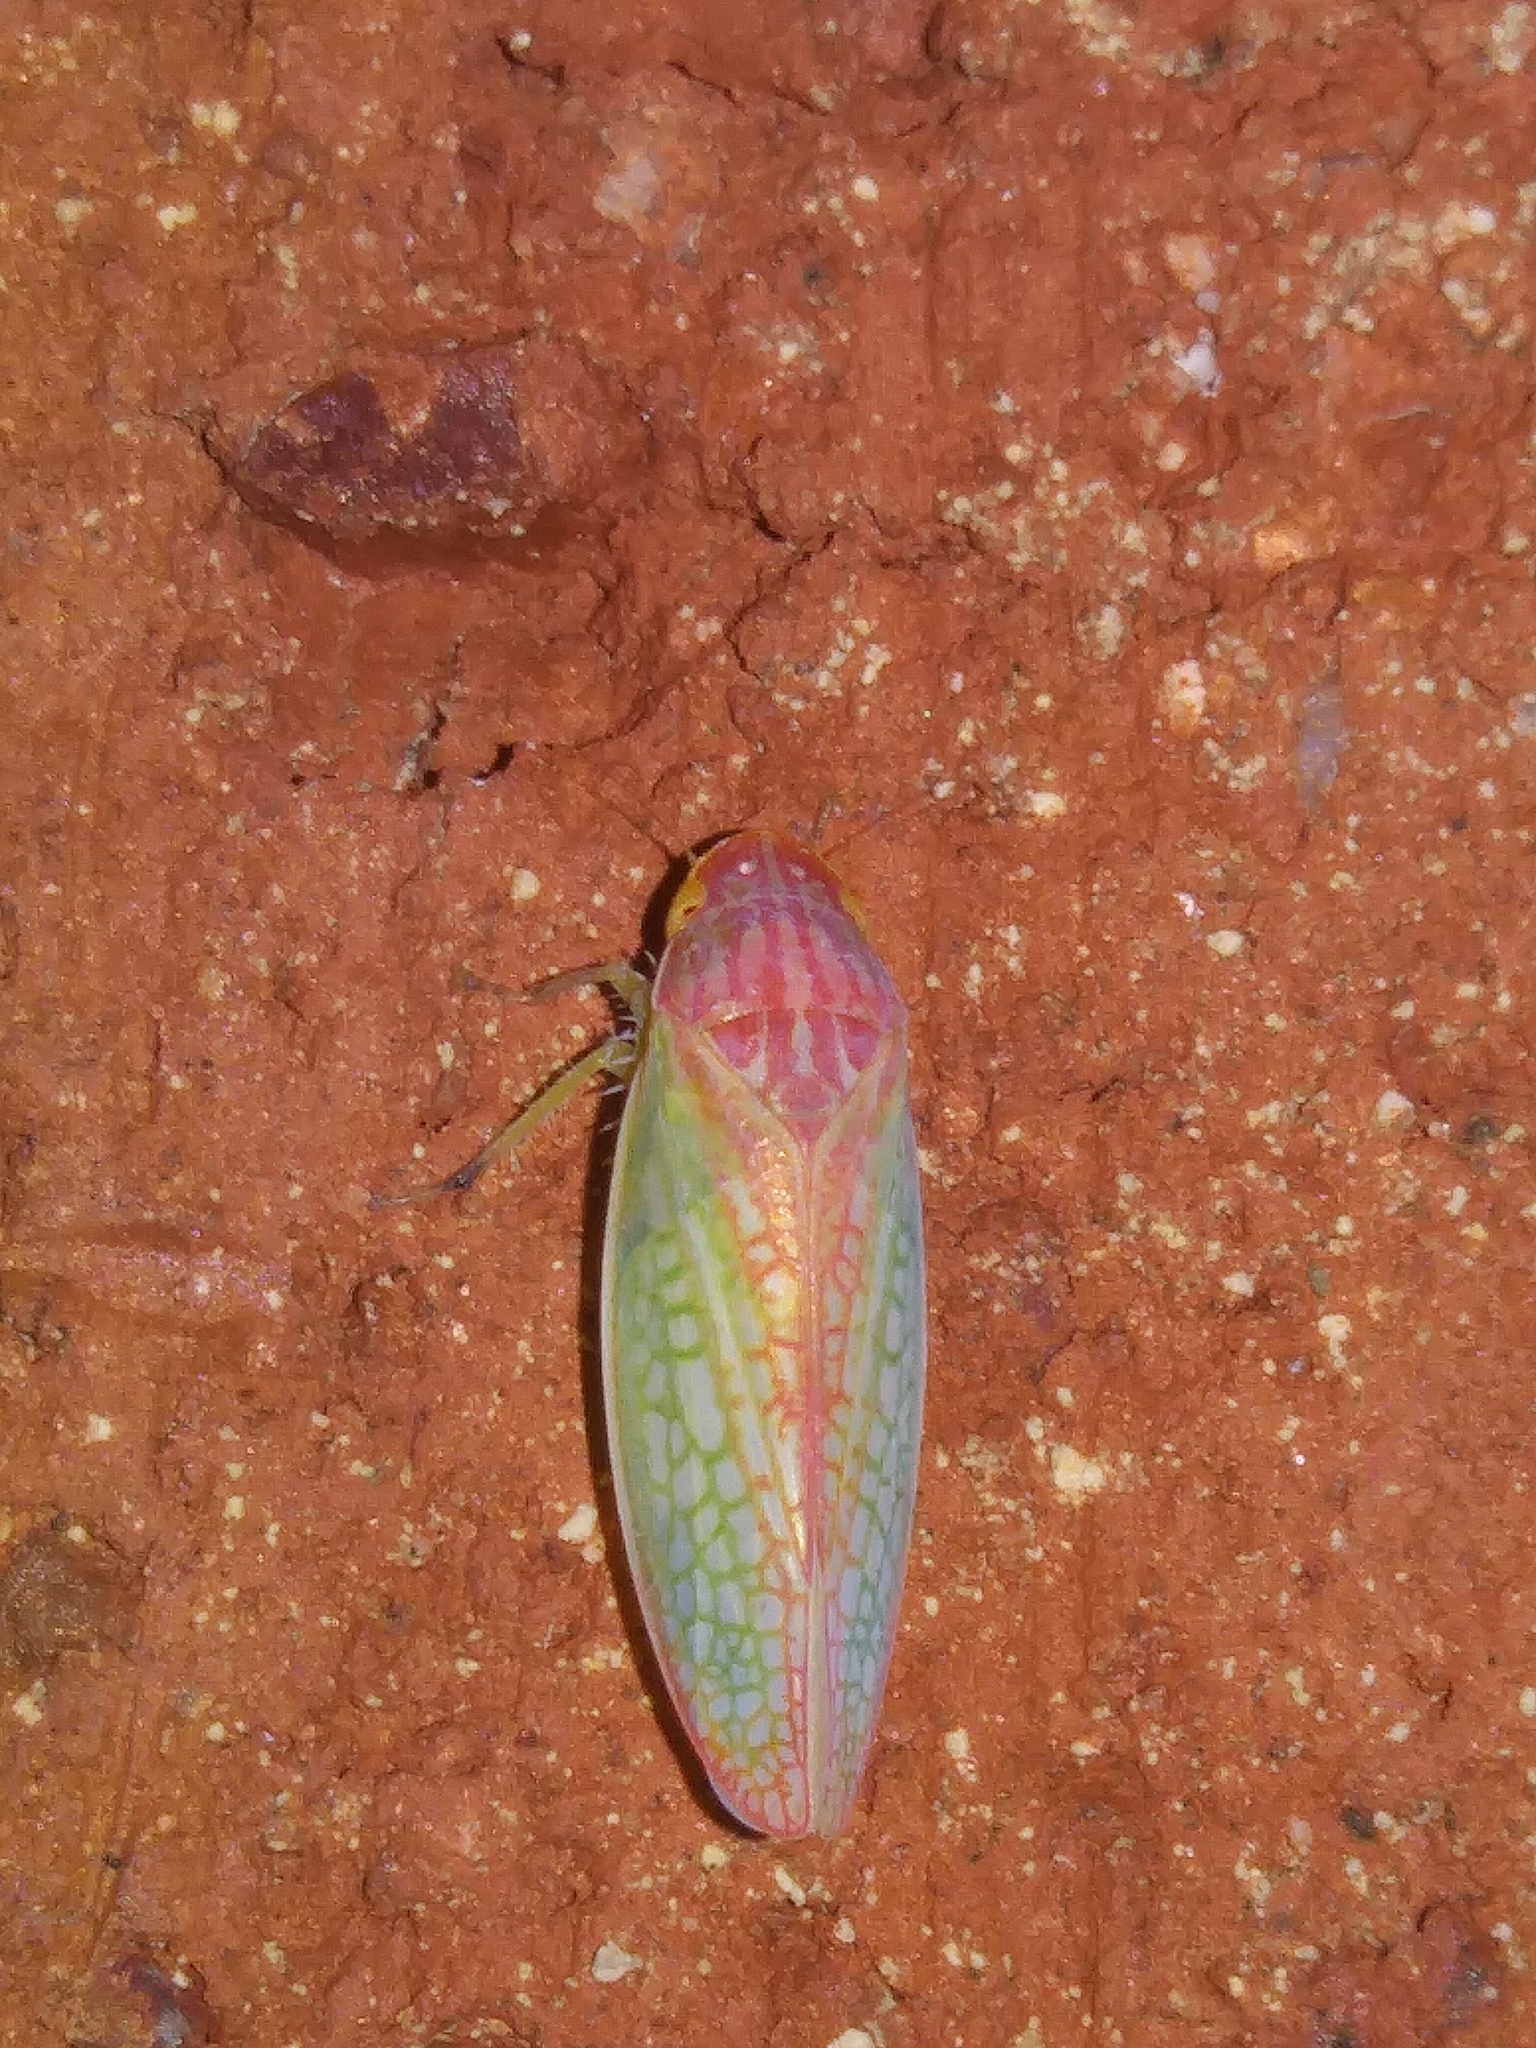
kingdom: Animalia
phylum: Arthropoda
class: Insecta
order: Hemiptera
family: Cicadellidae
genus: Gyponana
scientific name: Gyponana octolineata
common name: Eight-lined leafhopper
